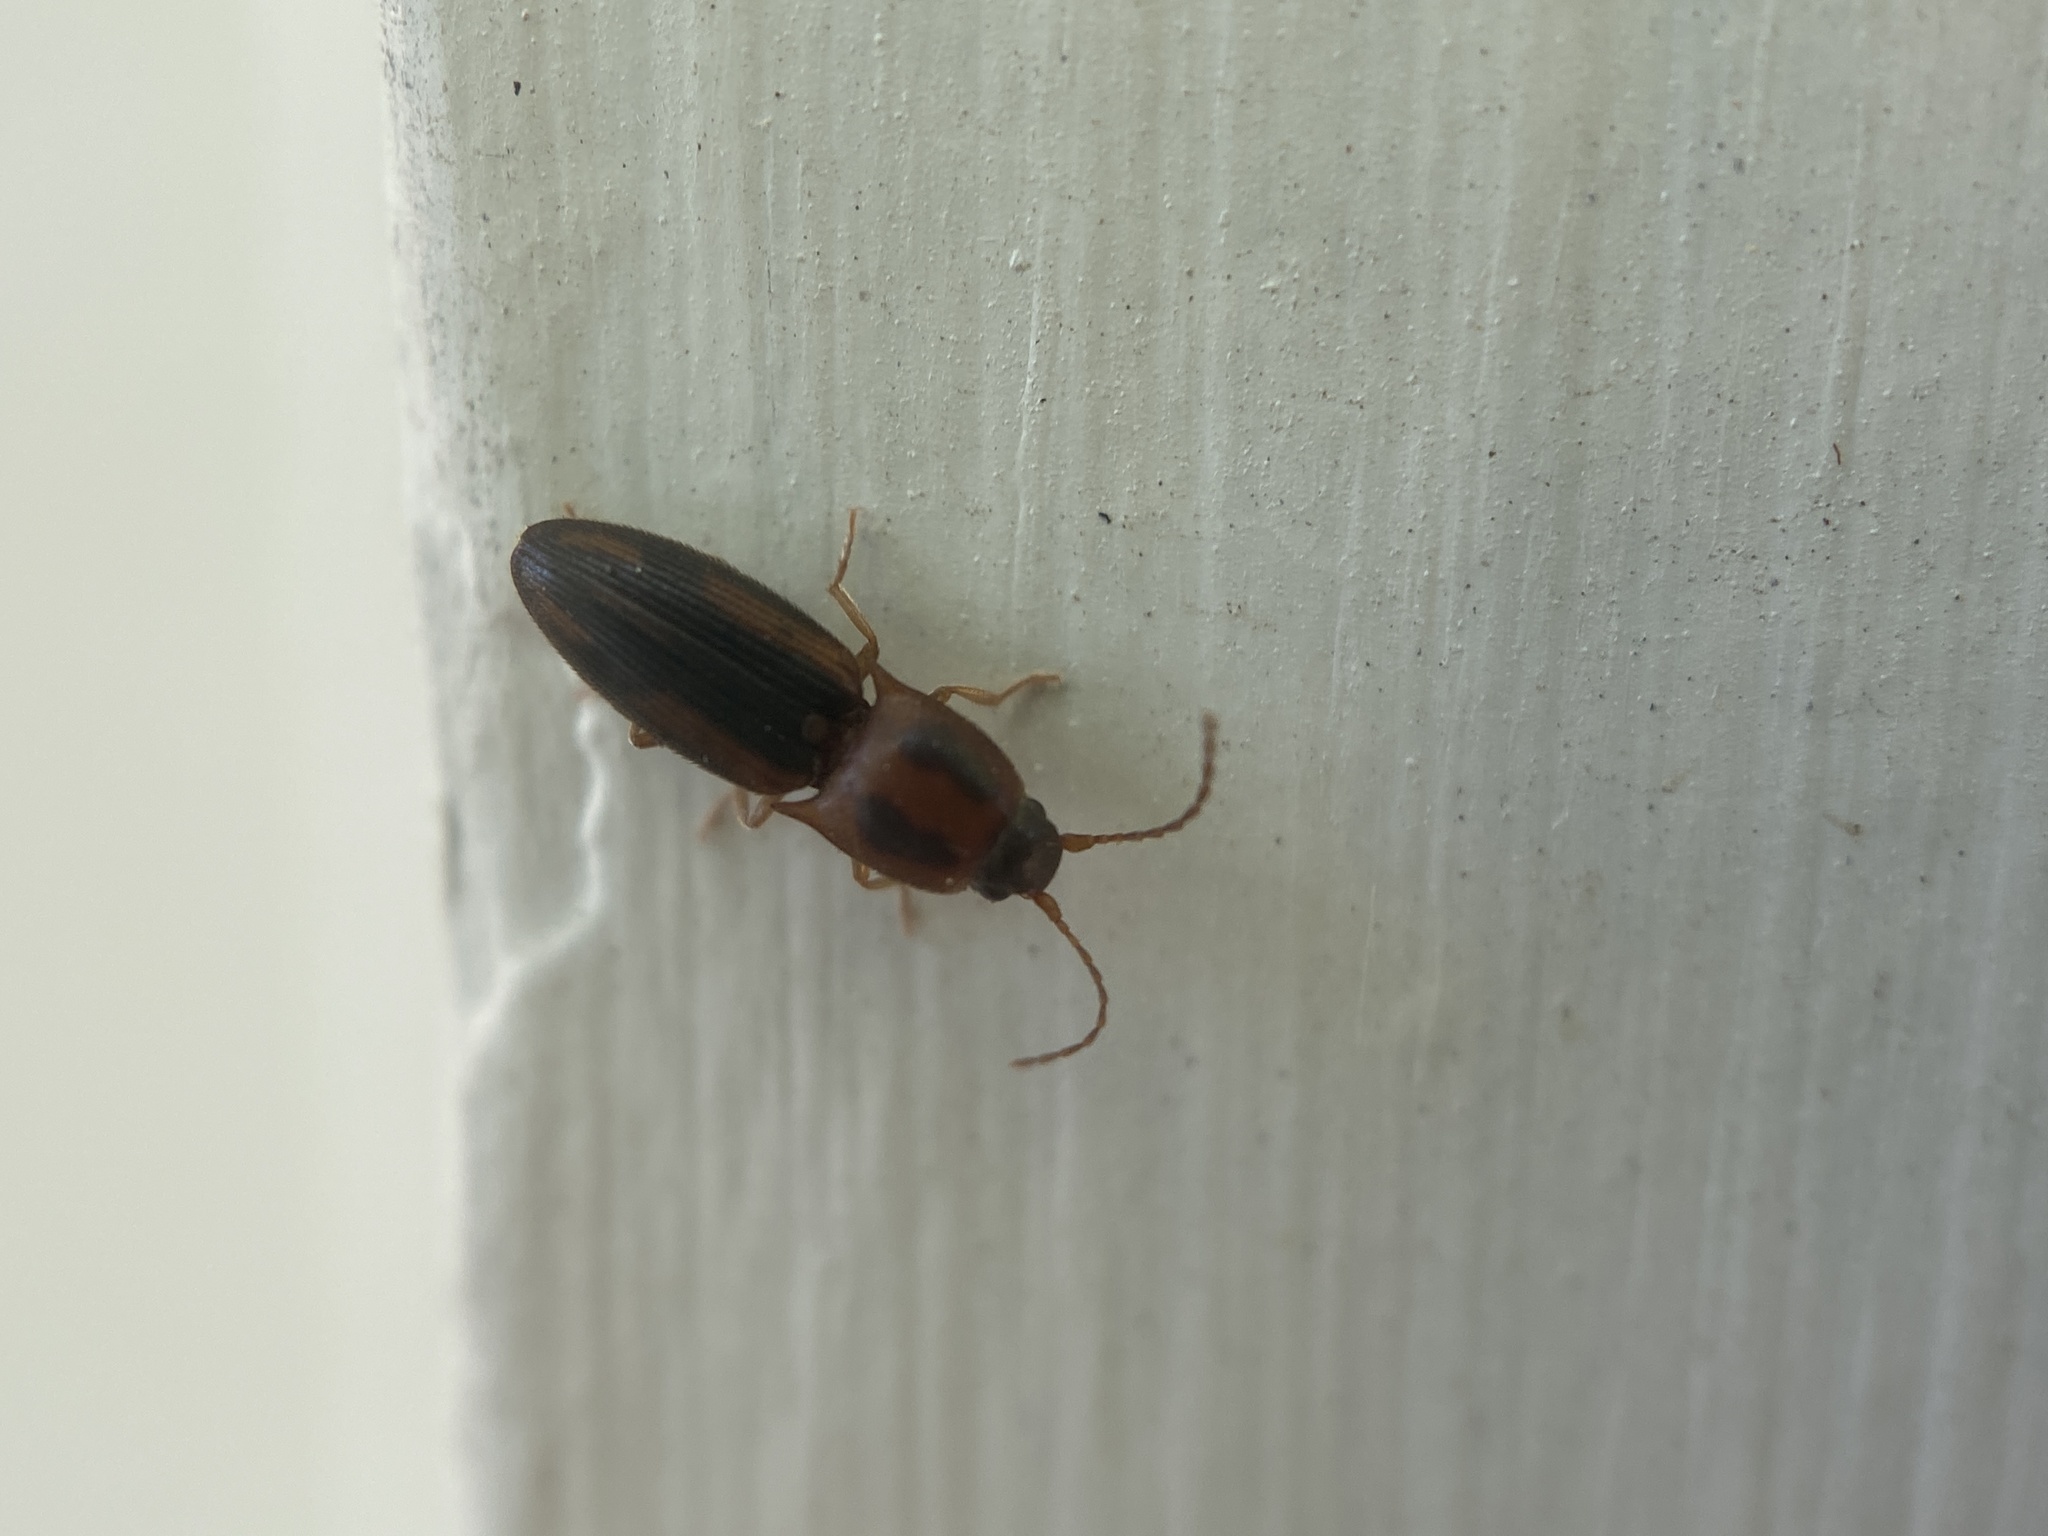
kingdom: Animalia
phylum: Arthropoda
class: Insecta
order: Coleoptera
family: Elateridae
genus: Monocrepidius
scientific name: Monocrepidius
